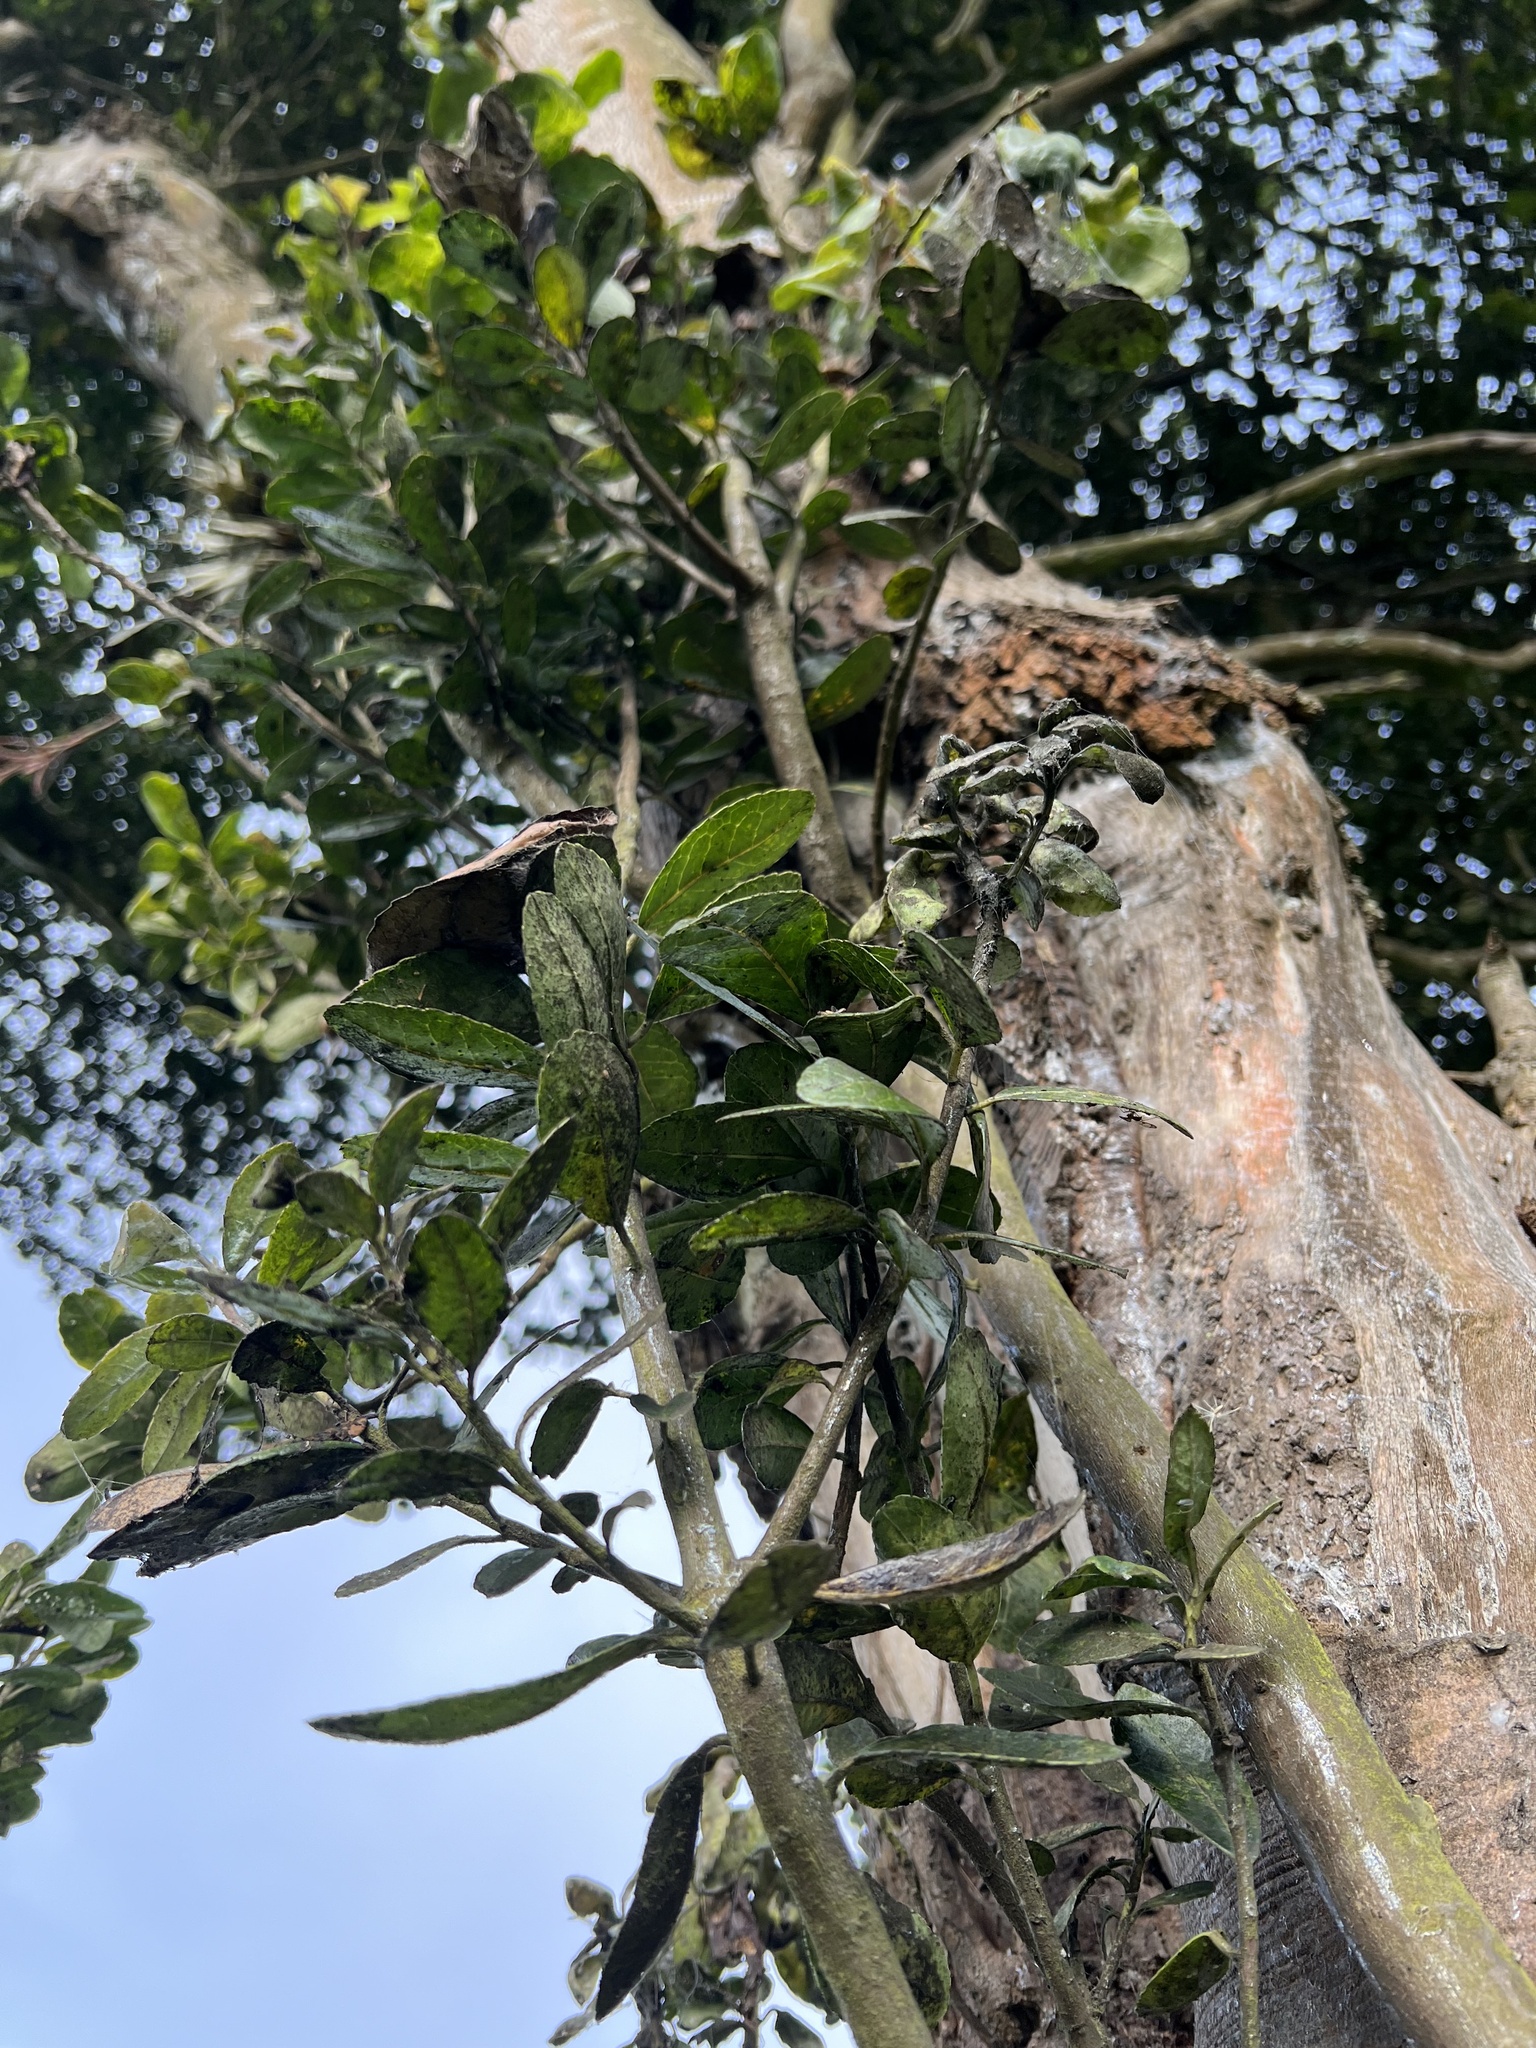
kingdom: Plantae
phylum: Tracheophyta
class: Magnoliopsida
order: Aquifoliales
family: Aquifoliaceae
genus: Ilex
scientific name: Ilex nervosa
